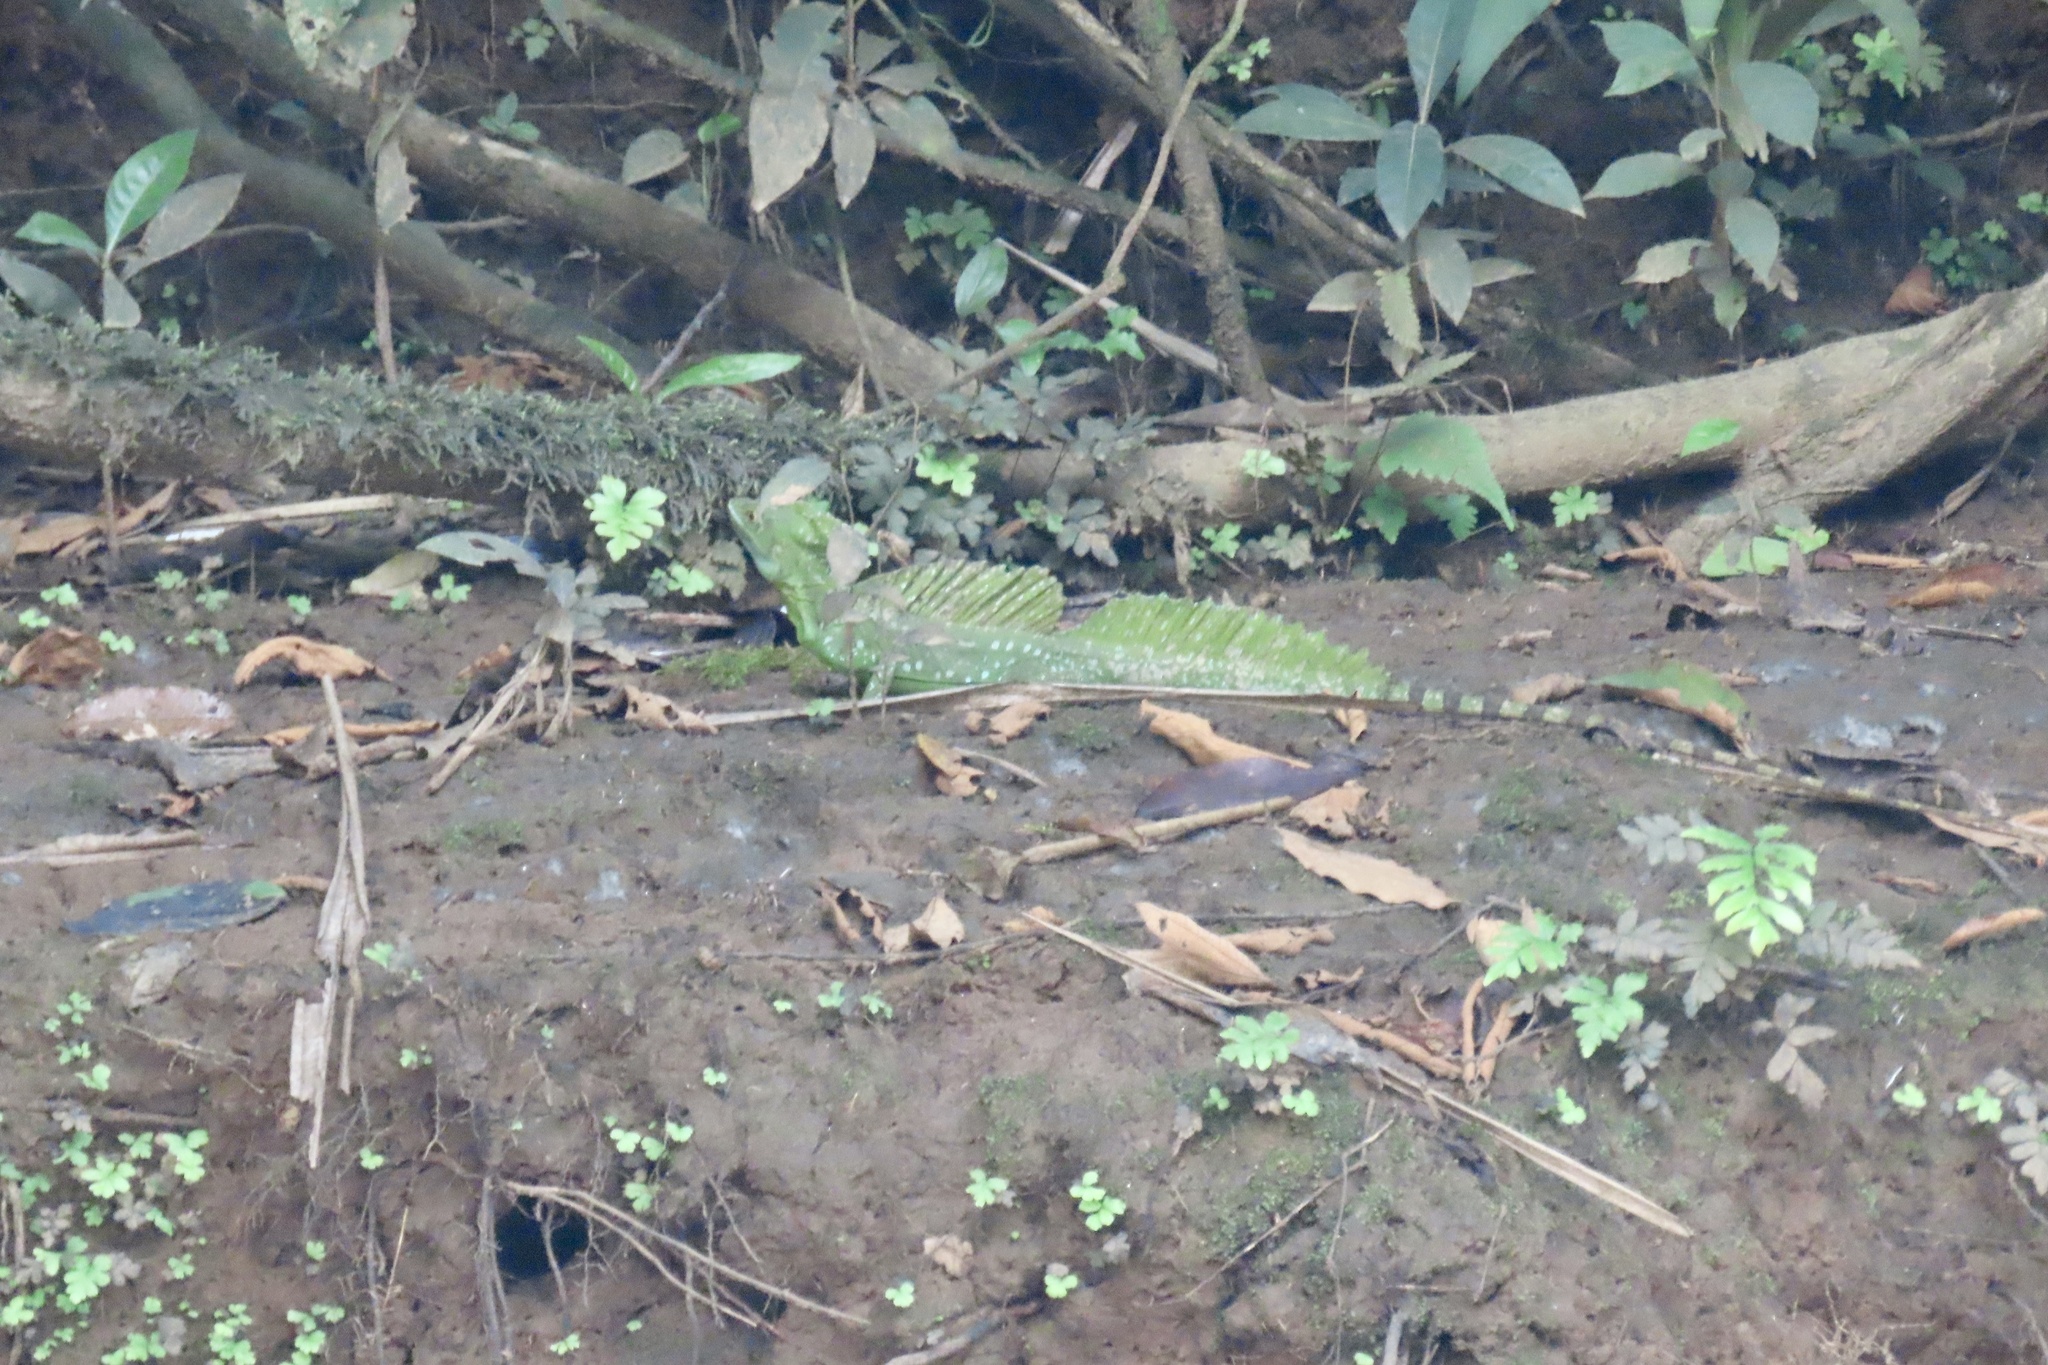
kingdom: Animalia
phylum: Chordata
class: Squamata
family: Corytophanidae
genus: Basiliscus
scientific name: Basiliscus plumifrons
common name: Green basilisk
